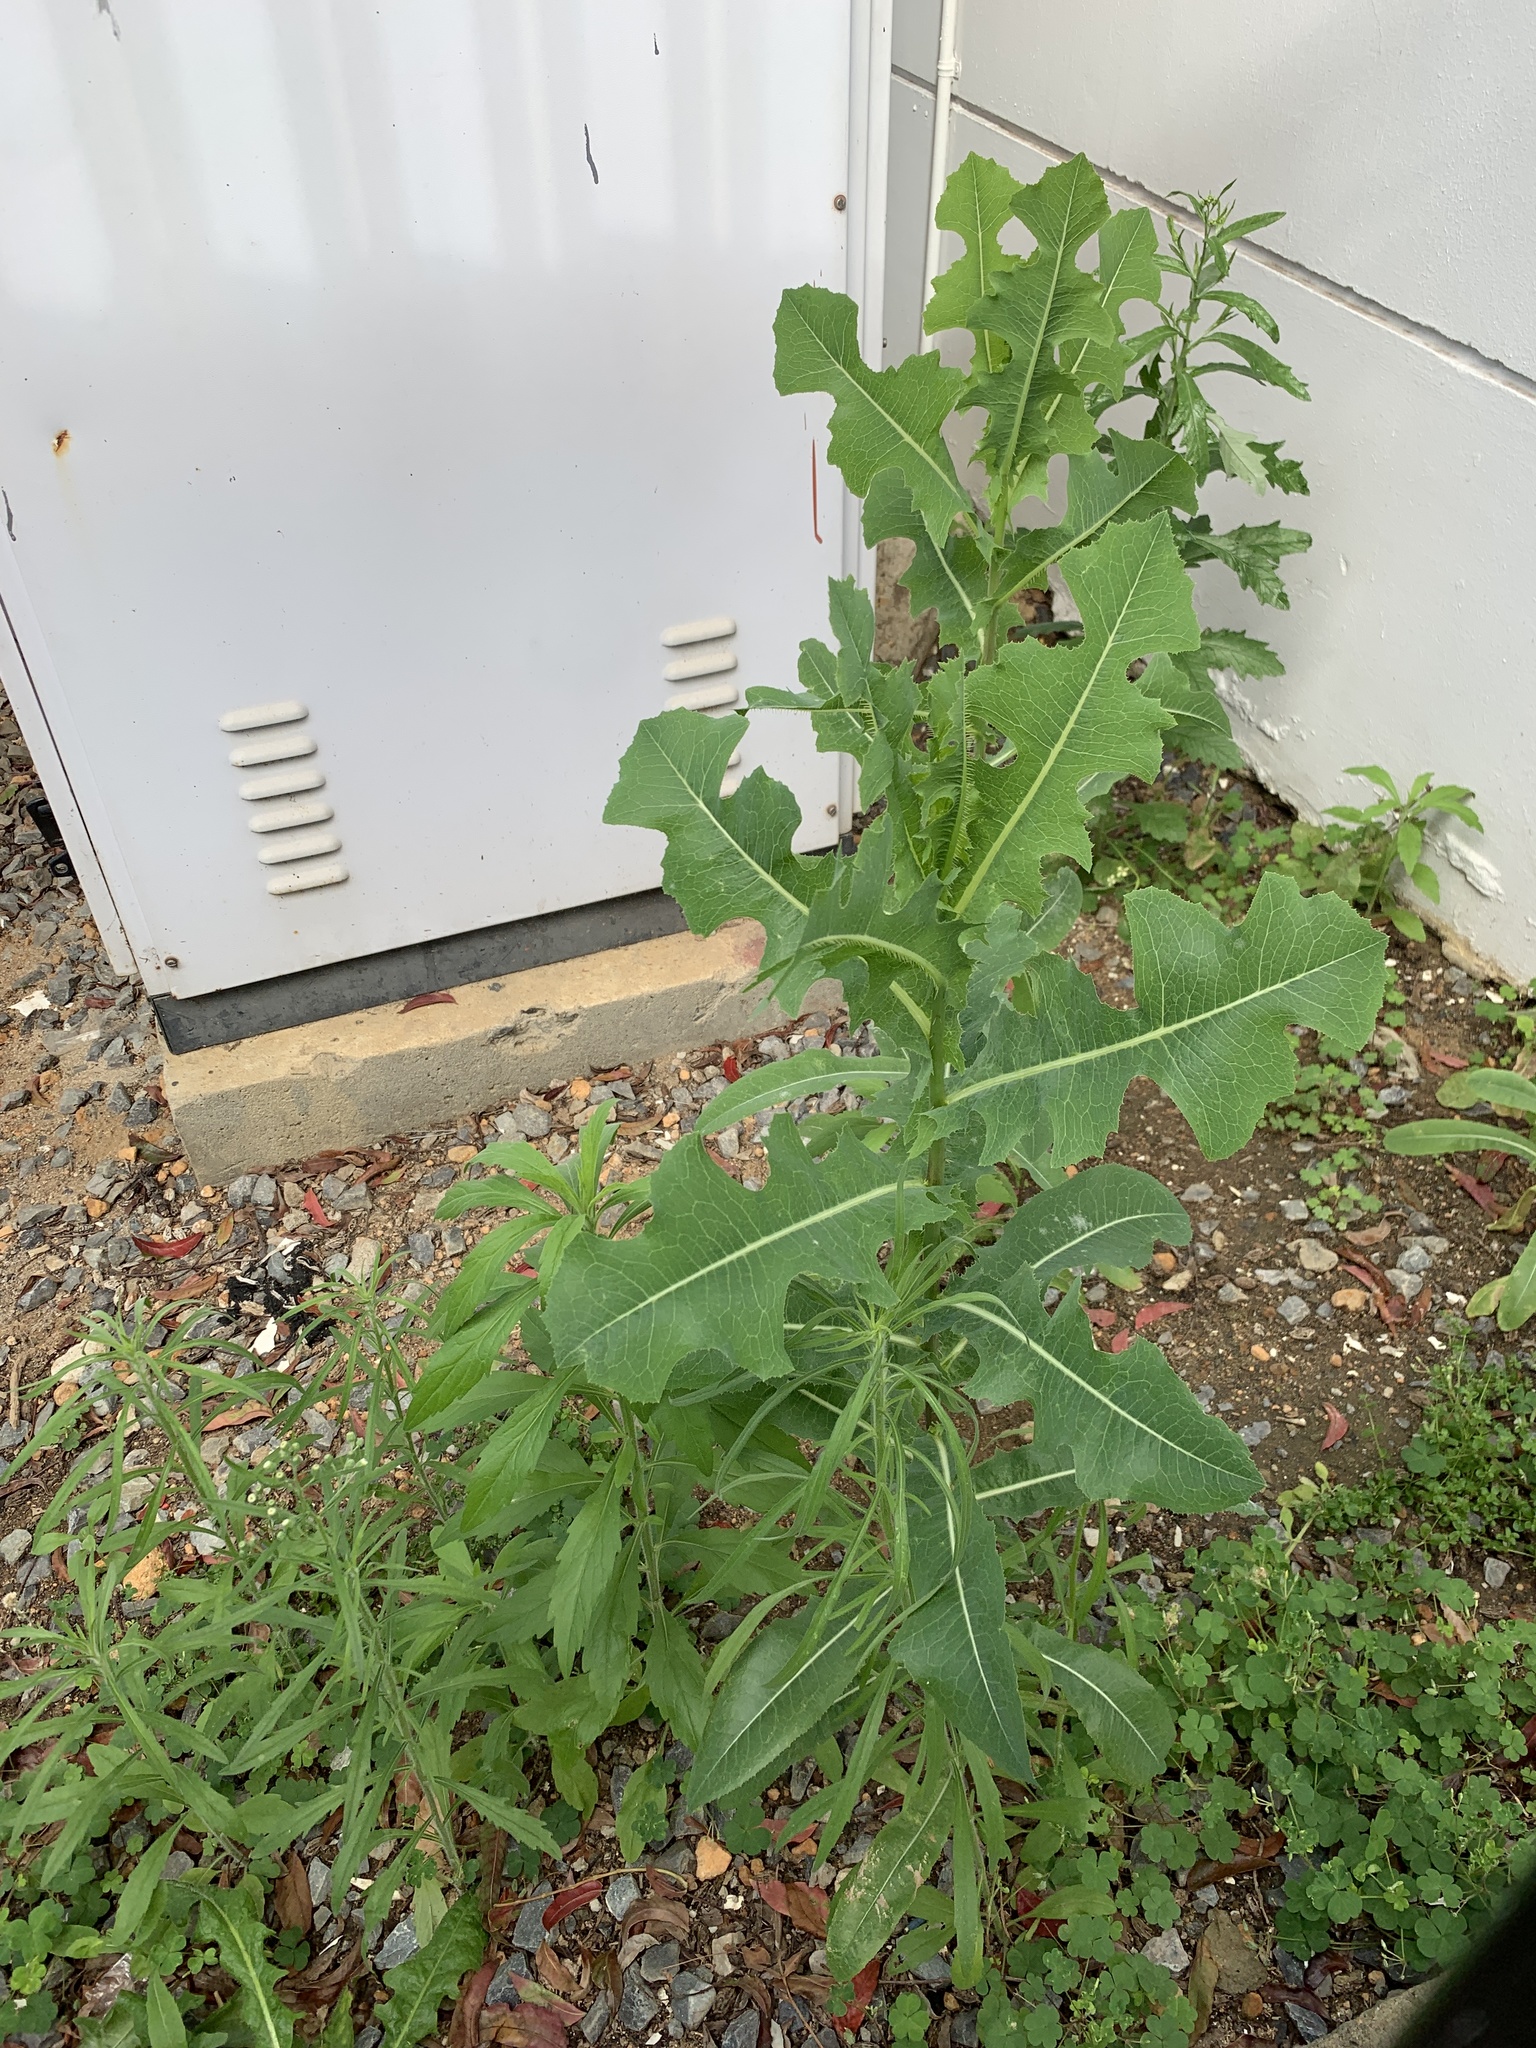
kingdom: Plantae
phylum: Tracheophyta
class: Magnoliopsida
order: Asterales
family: Asteraceae
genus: Lactuca
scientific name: Lactuca serriola
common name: Prickly lettuce
